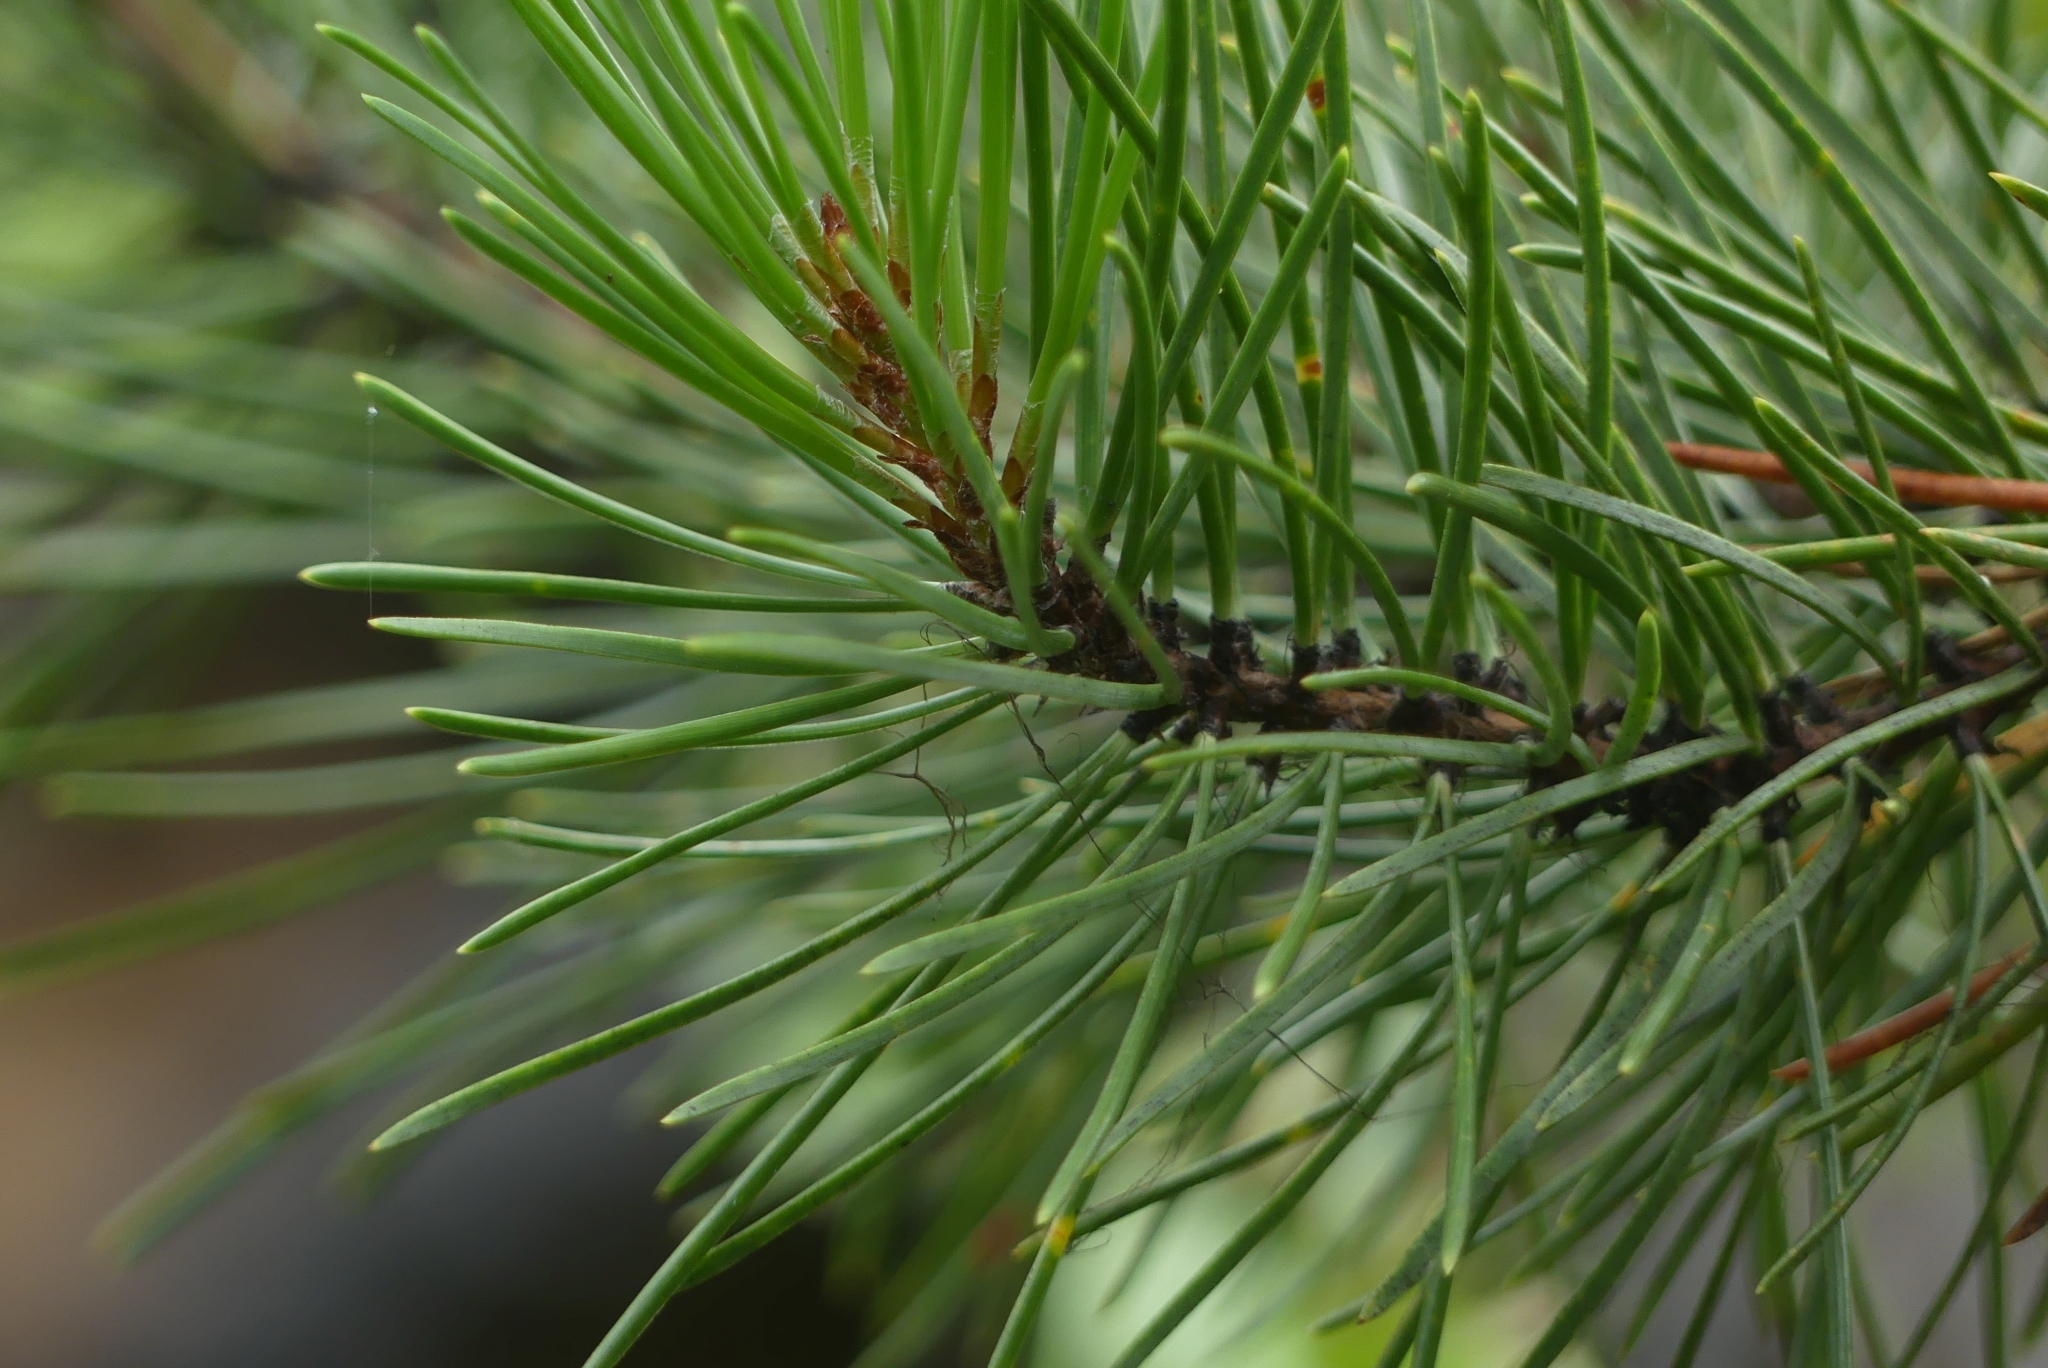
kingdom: Plantae
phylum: Tracheophyta
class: Pinopsida
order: Pinales
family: Pinaceae
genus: Pinus
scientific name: Pinus contorta
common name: Lodgepole pine
